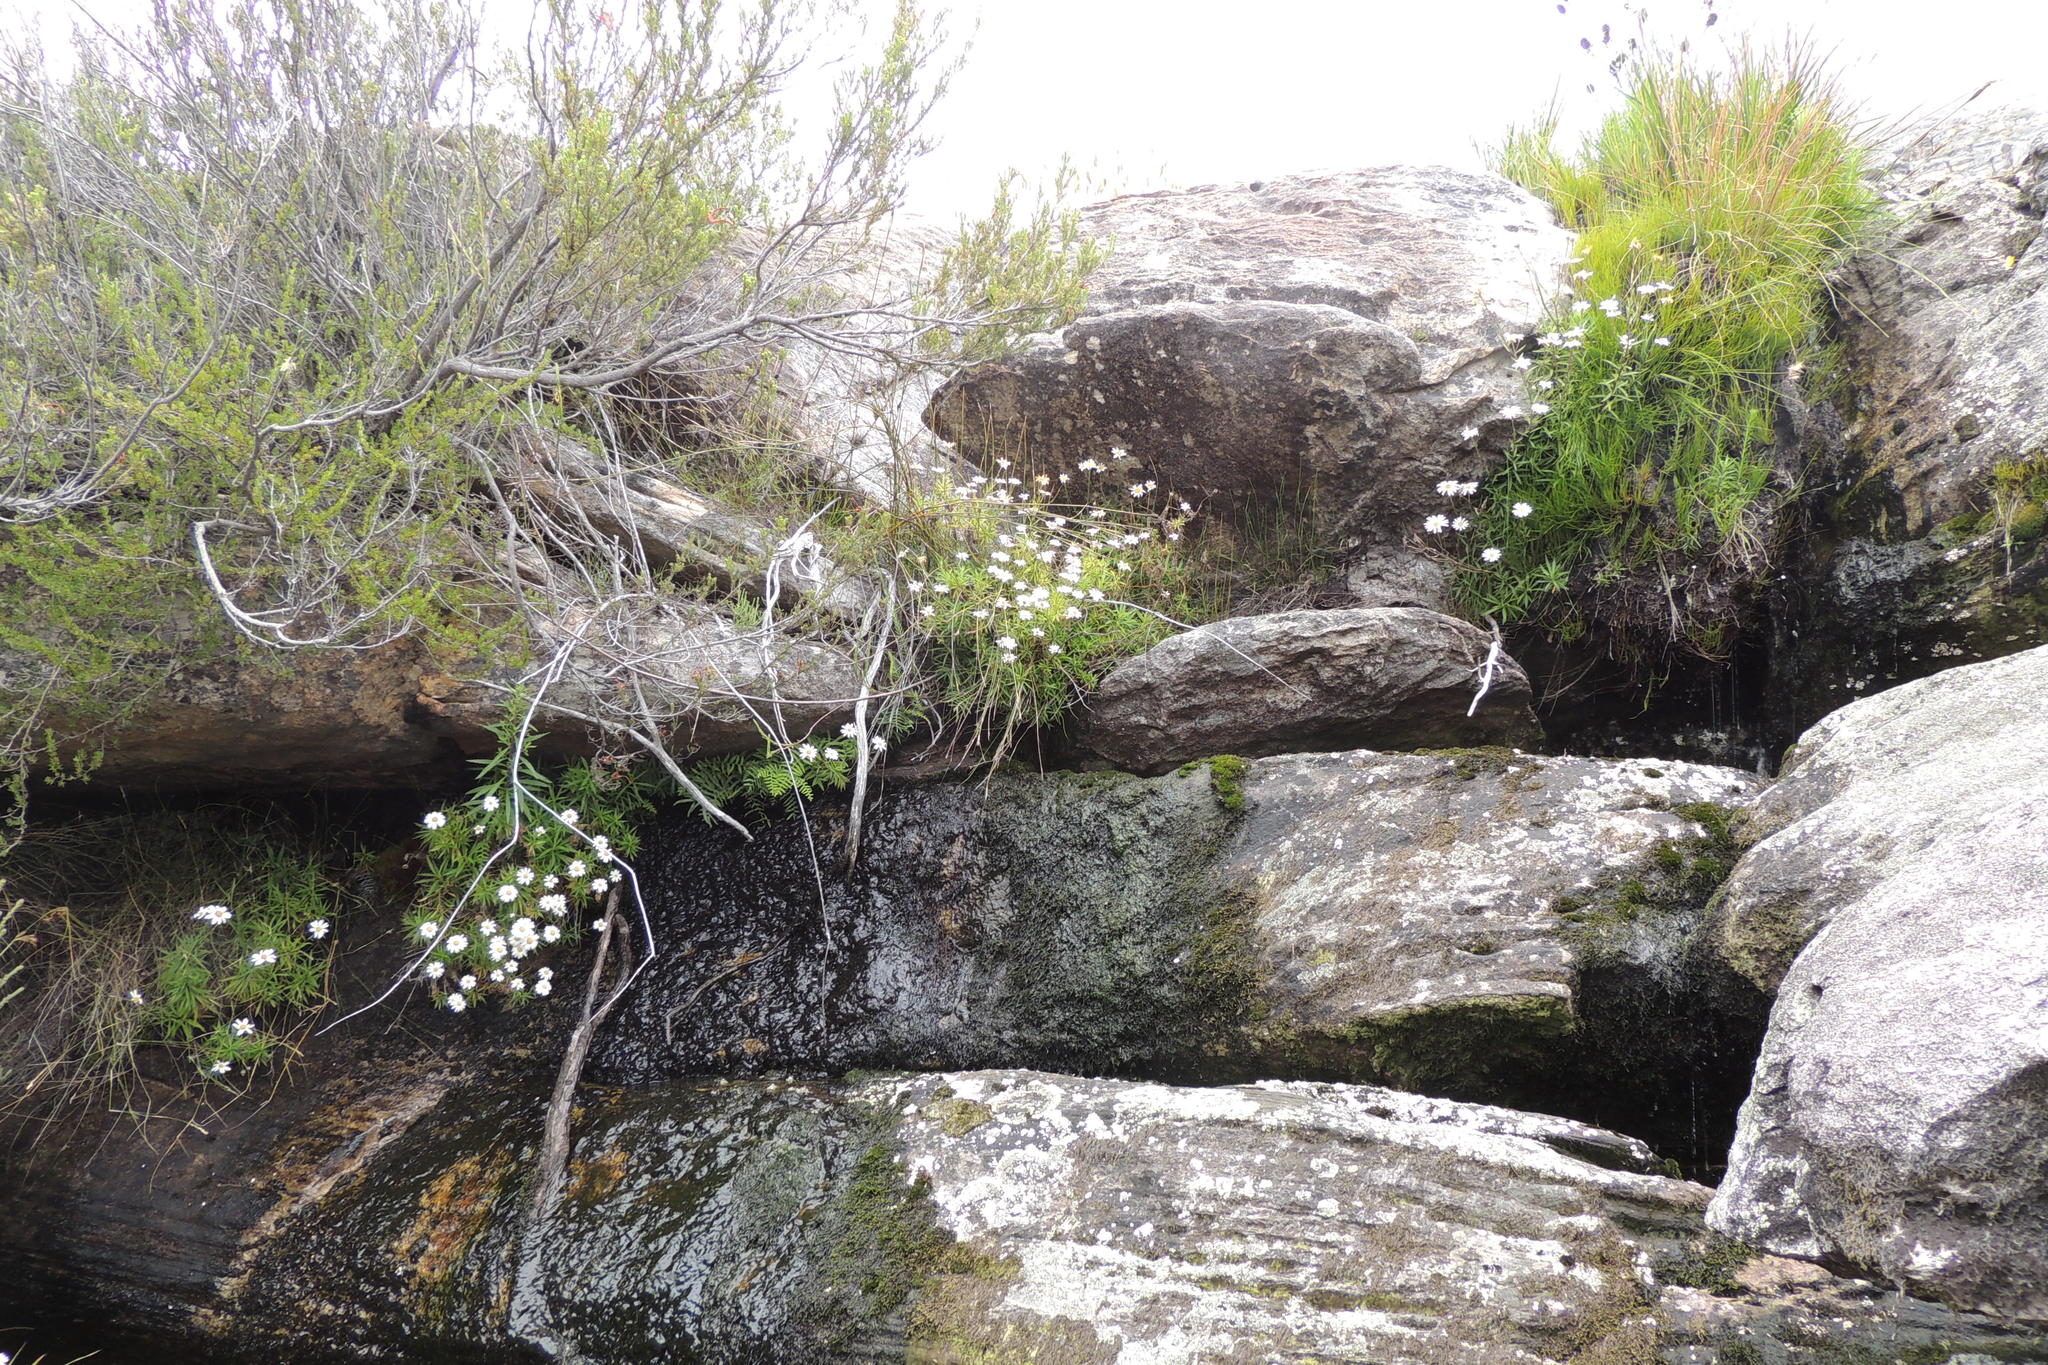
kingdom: Plantae
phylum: Tracheophyta
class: Magnoliopsida
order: Asterales
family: Asteraceae
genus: Osmitopsis
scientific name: Osmitopsis osmitoides
